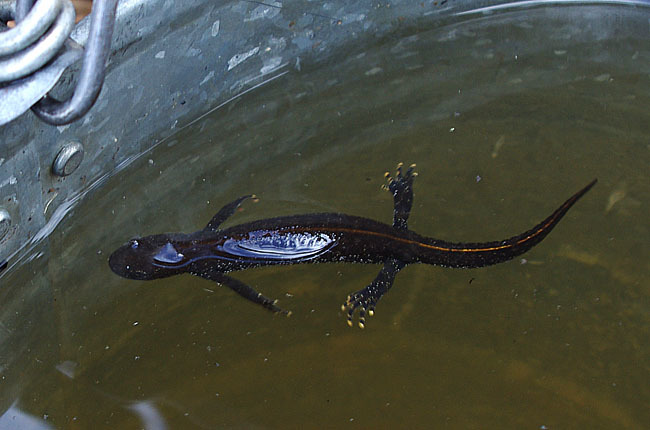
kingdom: Animalia
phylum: Chordata
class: Amphibia
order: Caudata
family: Salamandridae
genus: Triturus
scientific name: Triturus cristatus
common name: Crested newt
